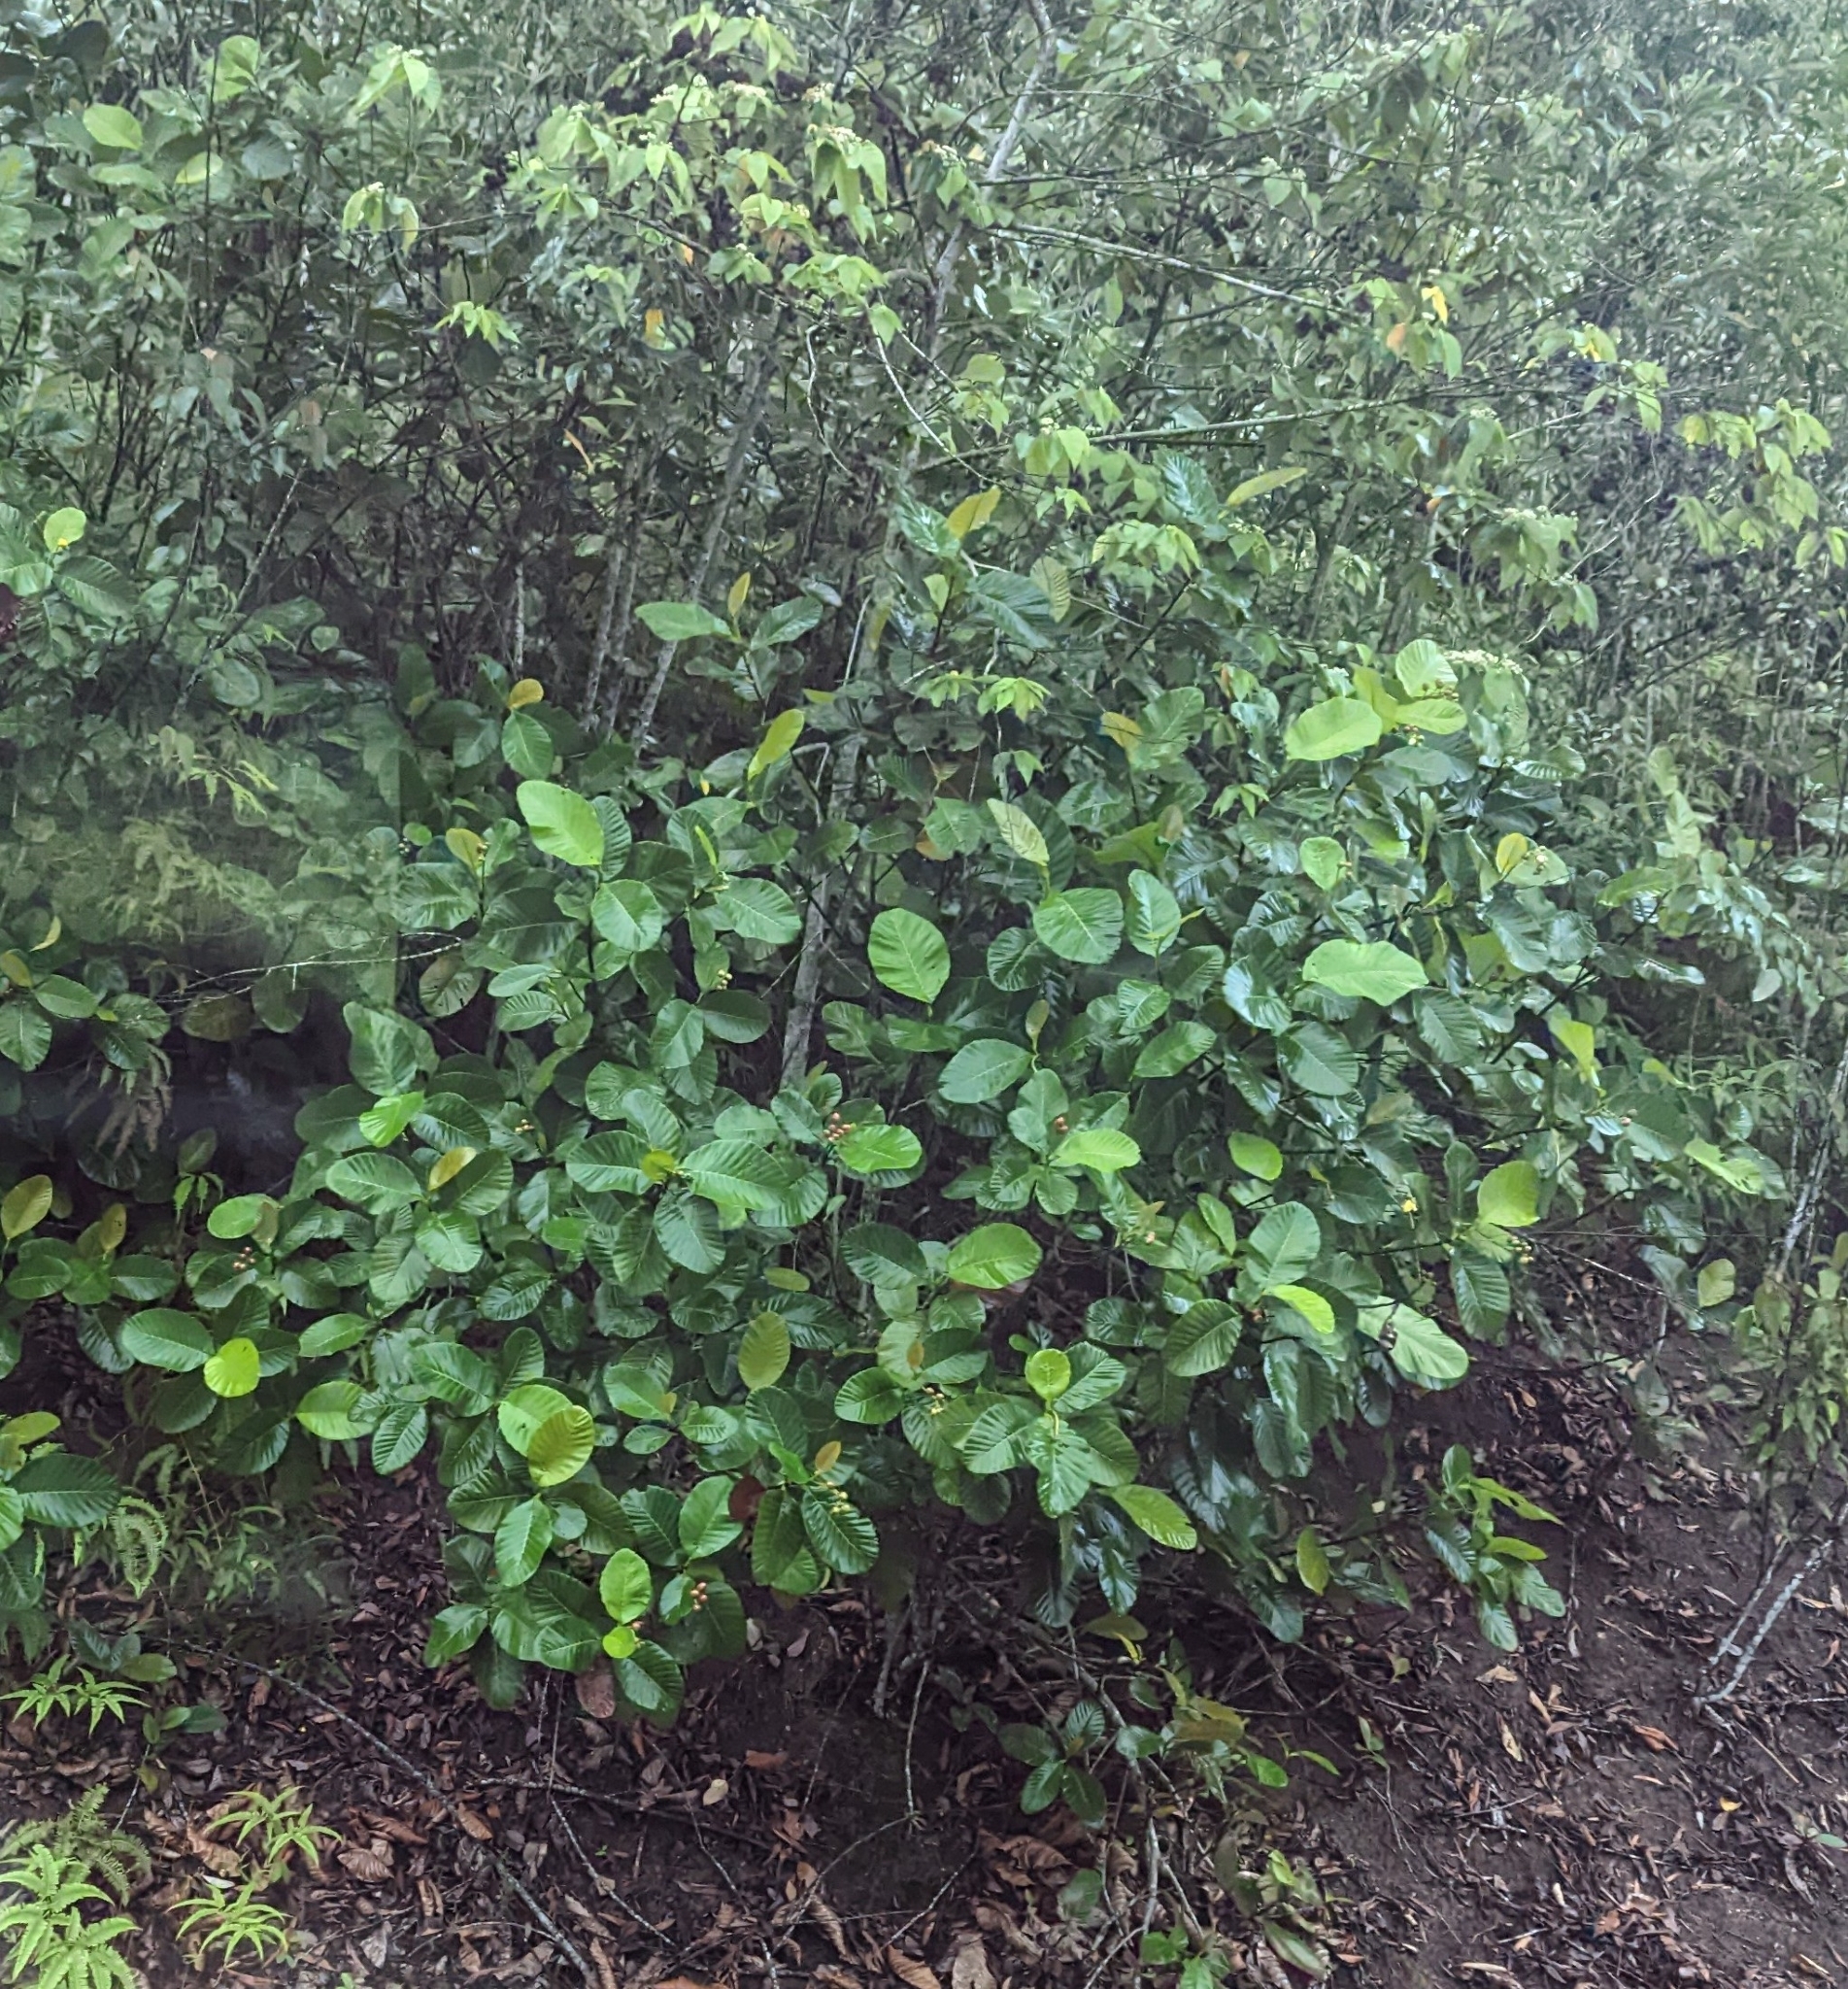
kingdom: Plantae
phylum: Tracheophyta
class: Magnoliopsida
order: Dilleniales
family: Dilleniaceae
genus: Dillenia
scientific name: Dillenia suffruticosa
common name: Shrubby dillenia
